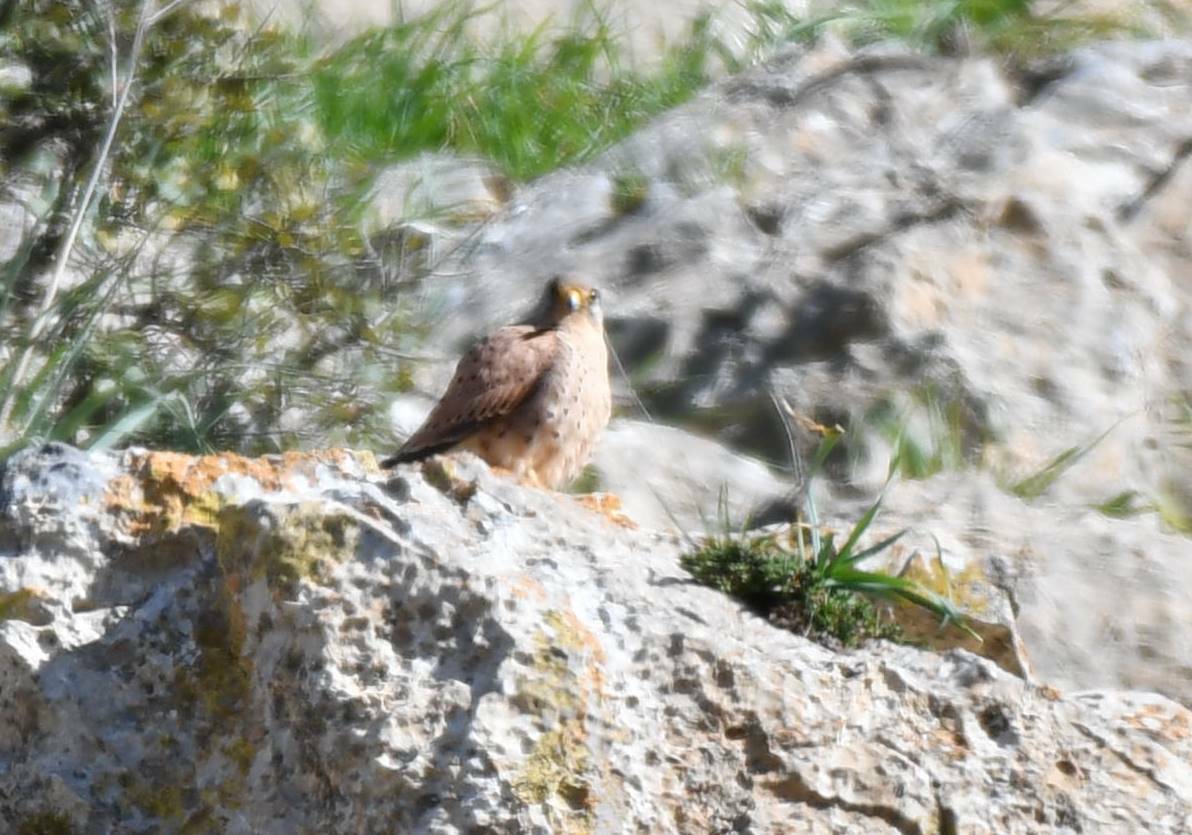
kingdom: Animalia
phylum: Chordata
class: Aves
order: Falconiformes
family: Falconidae
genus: Falco
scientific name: Falco tinnunculus
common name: Common kestrel
